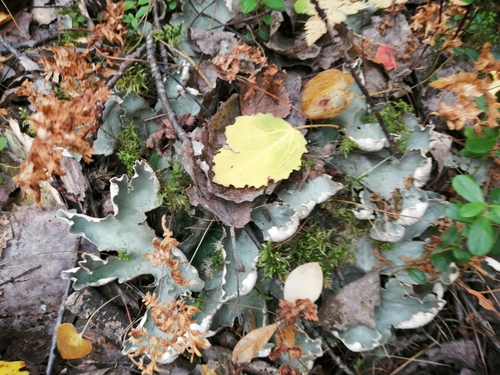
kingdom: Fungi
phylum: Ascomycota
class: Lecanoromycetes
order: Peltigerales
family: Peltigeraceae
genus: Peltigera
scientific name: Peltigera aphthosa
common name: Common freckle pelt lichen
